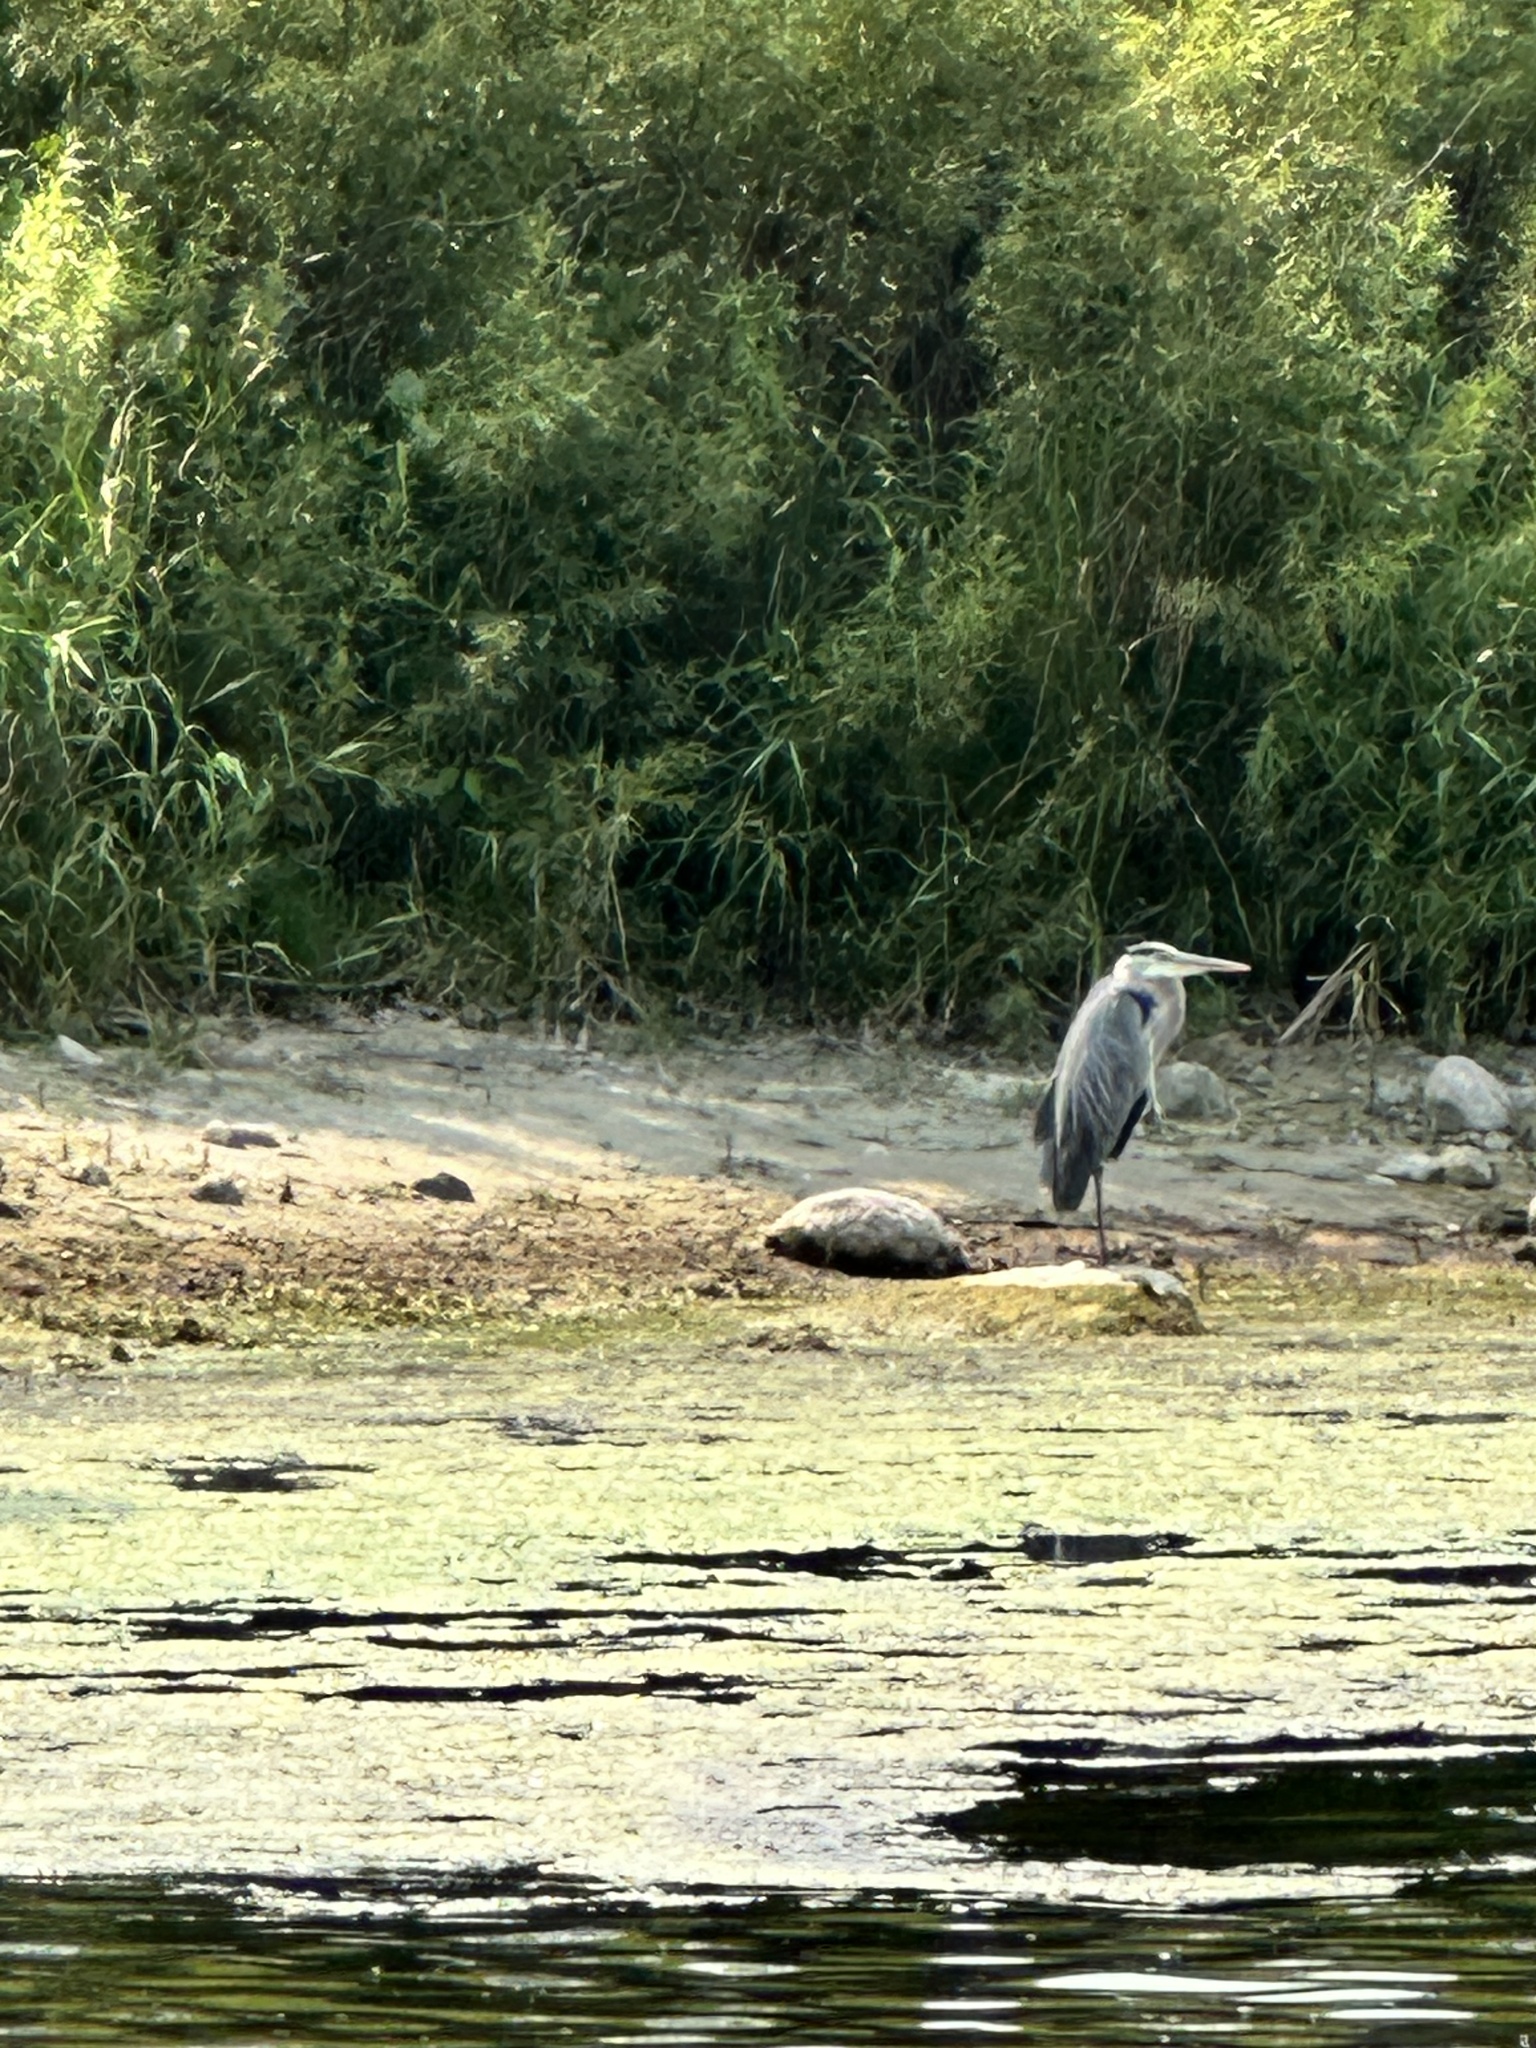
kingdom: Animalia
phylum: Chordata
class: Aves
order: Pelecaniformes
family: Ardeidae
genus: Ardea
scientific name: Ardea herodias
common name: Great blue heron
